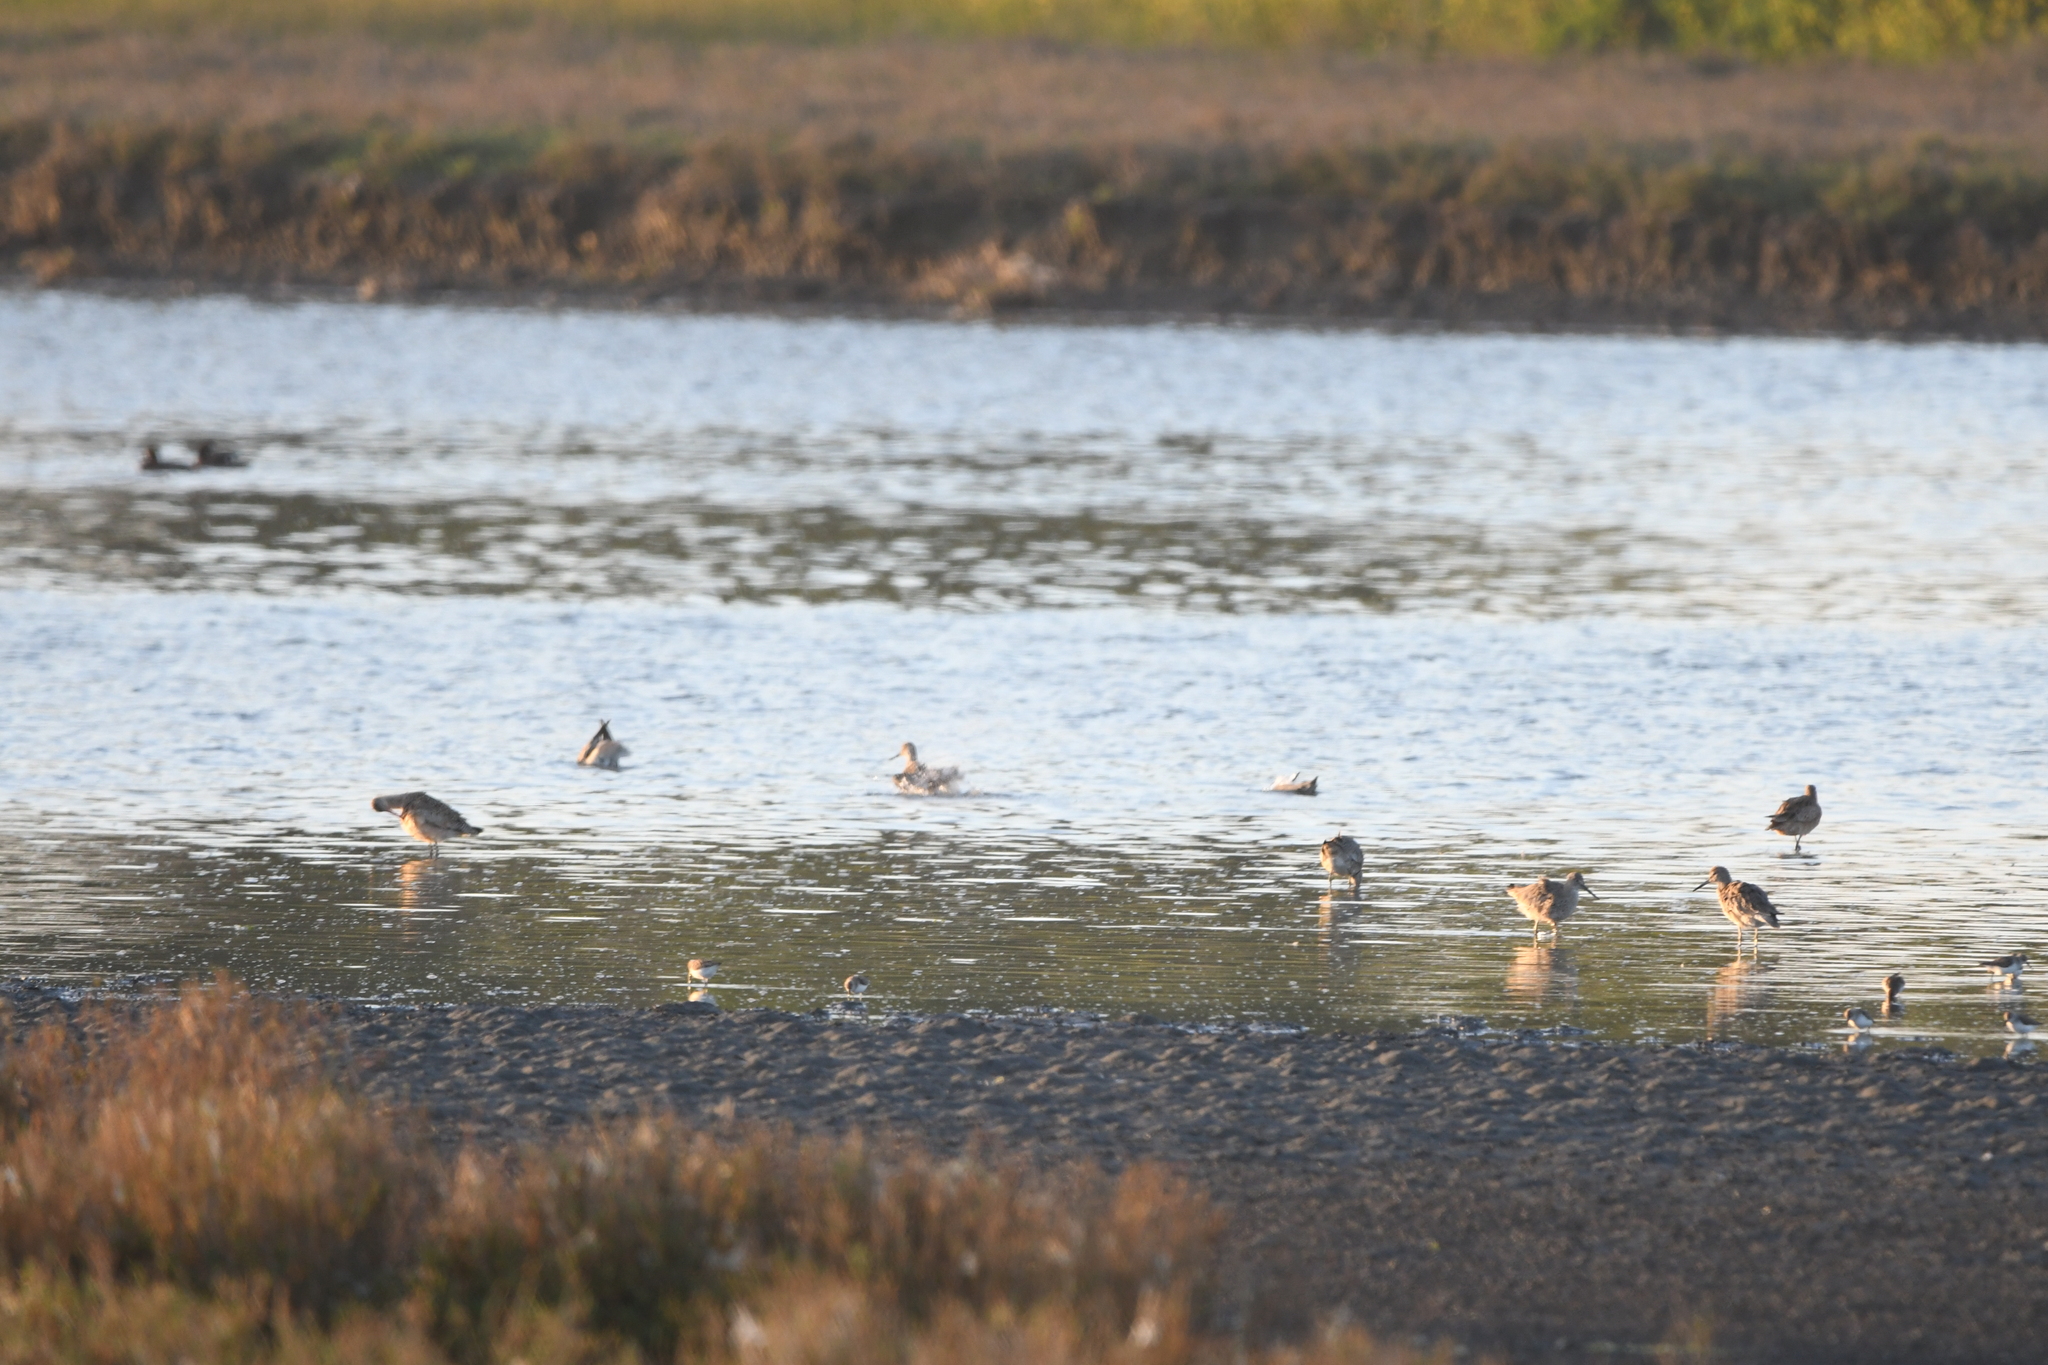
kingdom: Animalia
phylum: Chordata
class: Aves
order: Charadriiformes
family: Scolopacidae
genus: Limosa
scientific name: Limosa fedoa
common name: Marbled godwit
